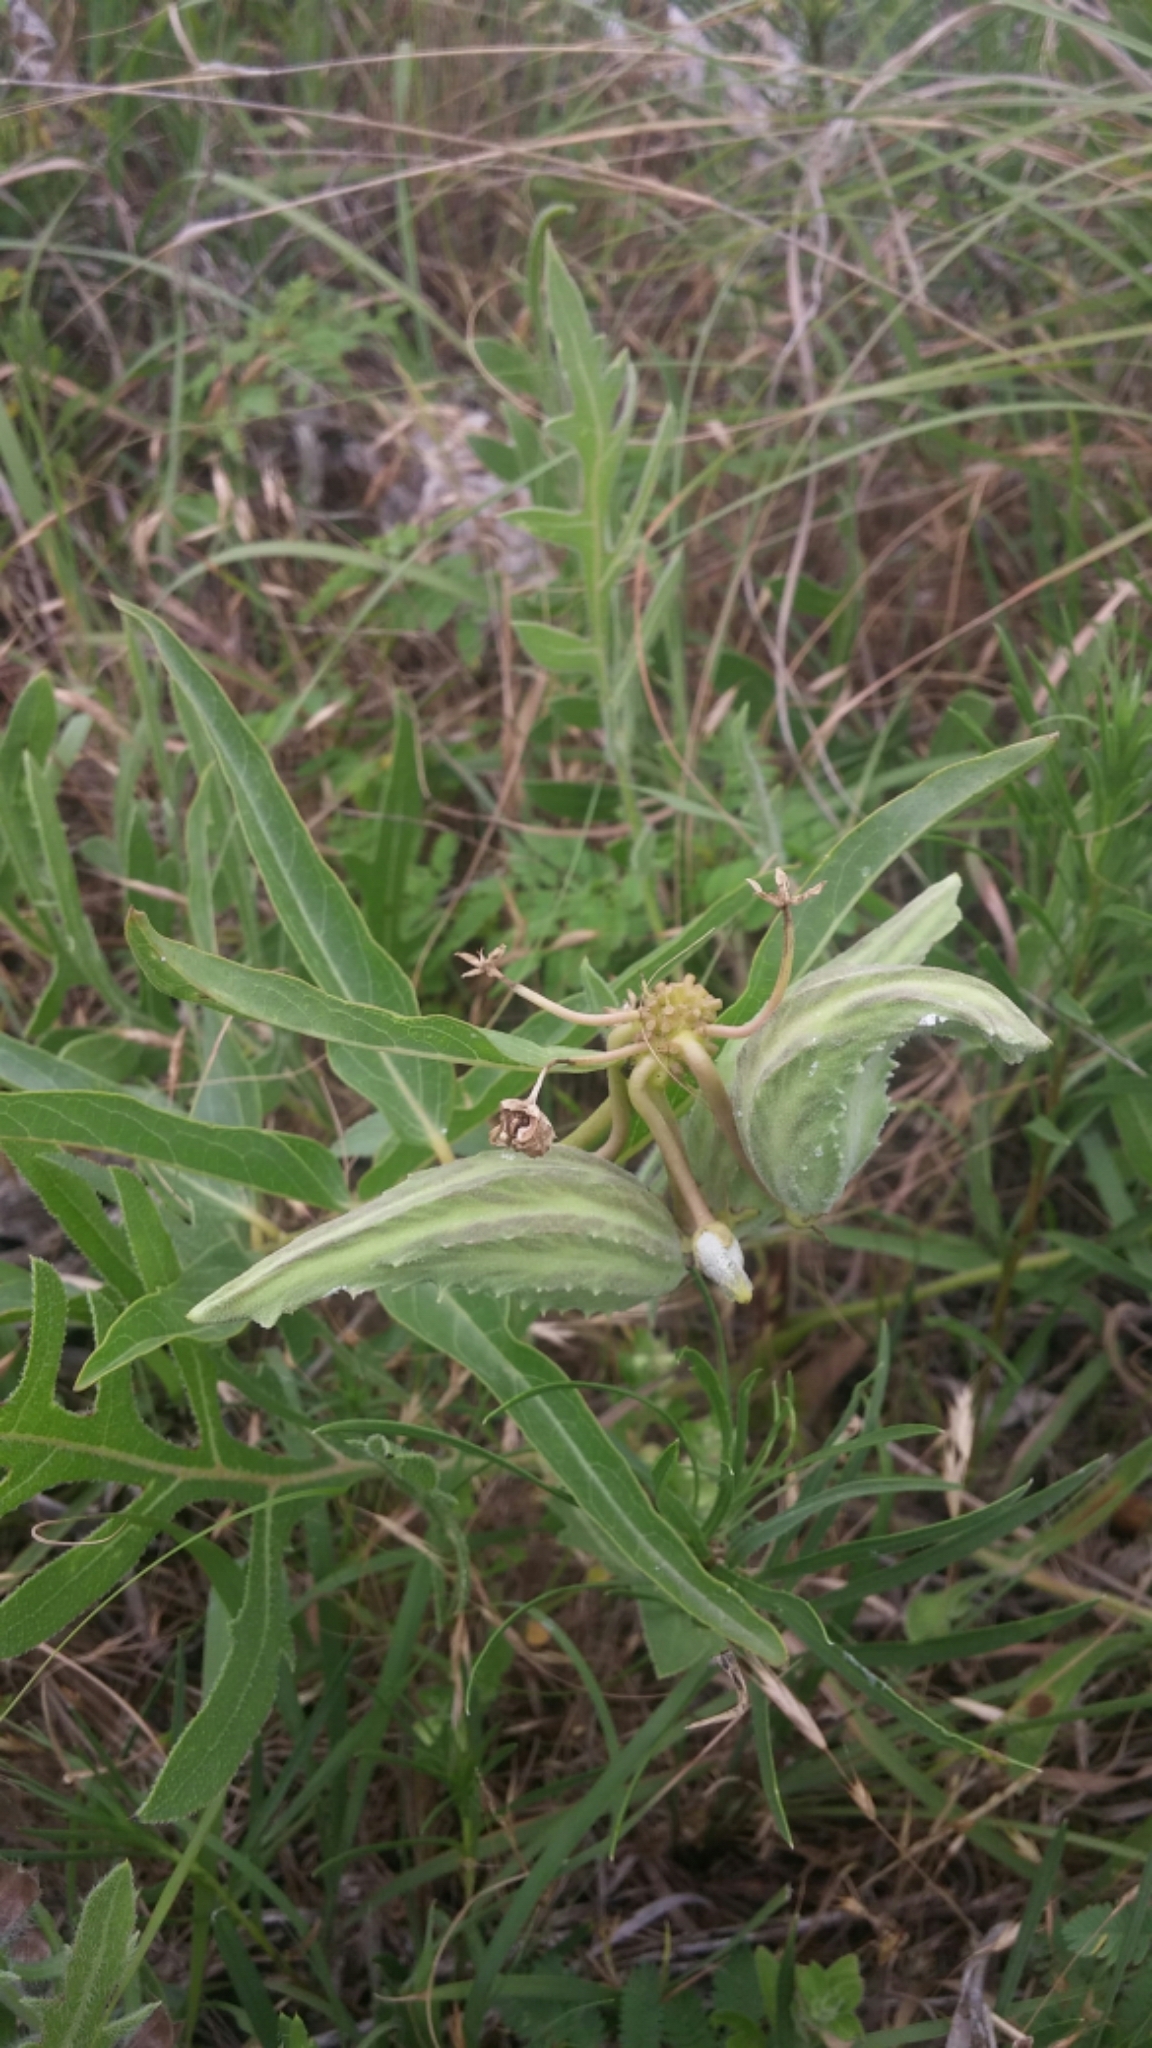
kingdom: Plantae
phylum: Tracheophyta
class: Magnoliopsida
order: Gentianales
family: Apocynaceae
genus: Asclepias
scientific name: Asclepias asperula
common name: Antelope horns
